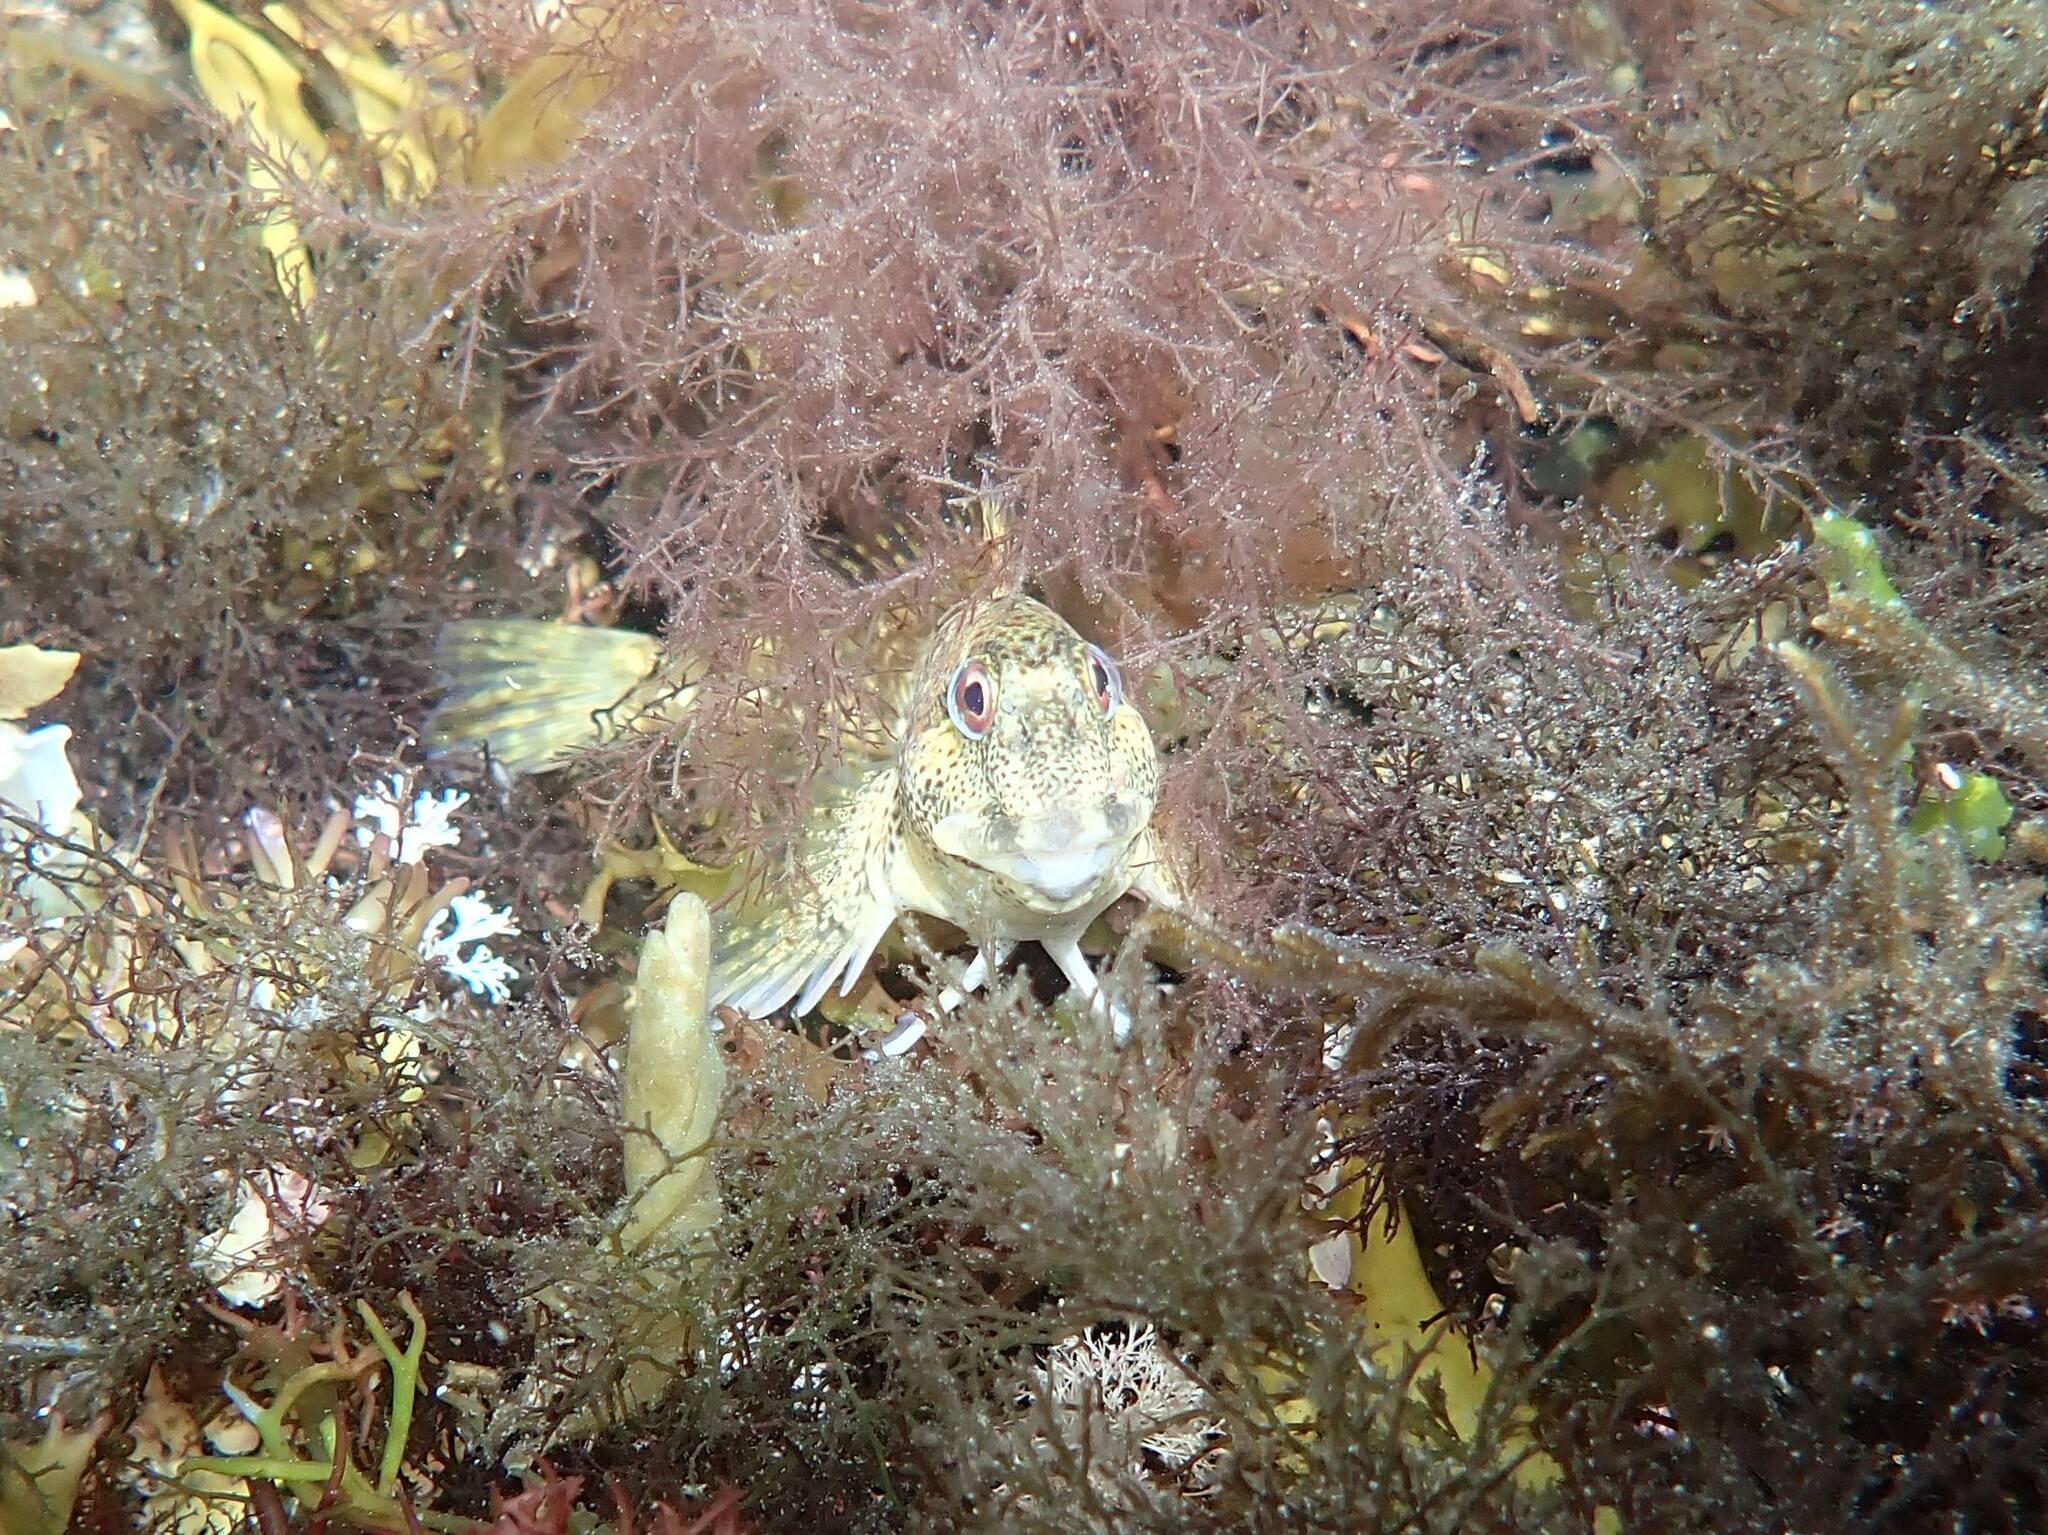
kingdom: Animalia
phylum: Chordata
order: Perciformes
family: Blenniidae
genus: Lipophrys
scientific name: Lipophrys pholis
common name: Shanny
